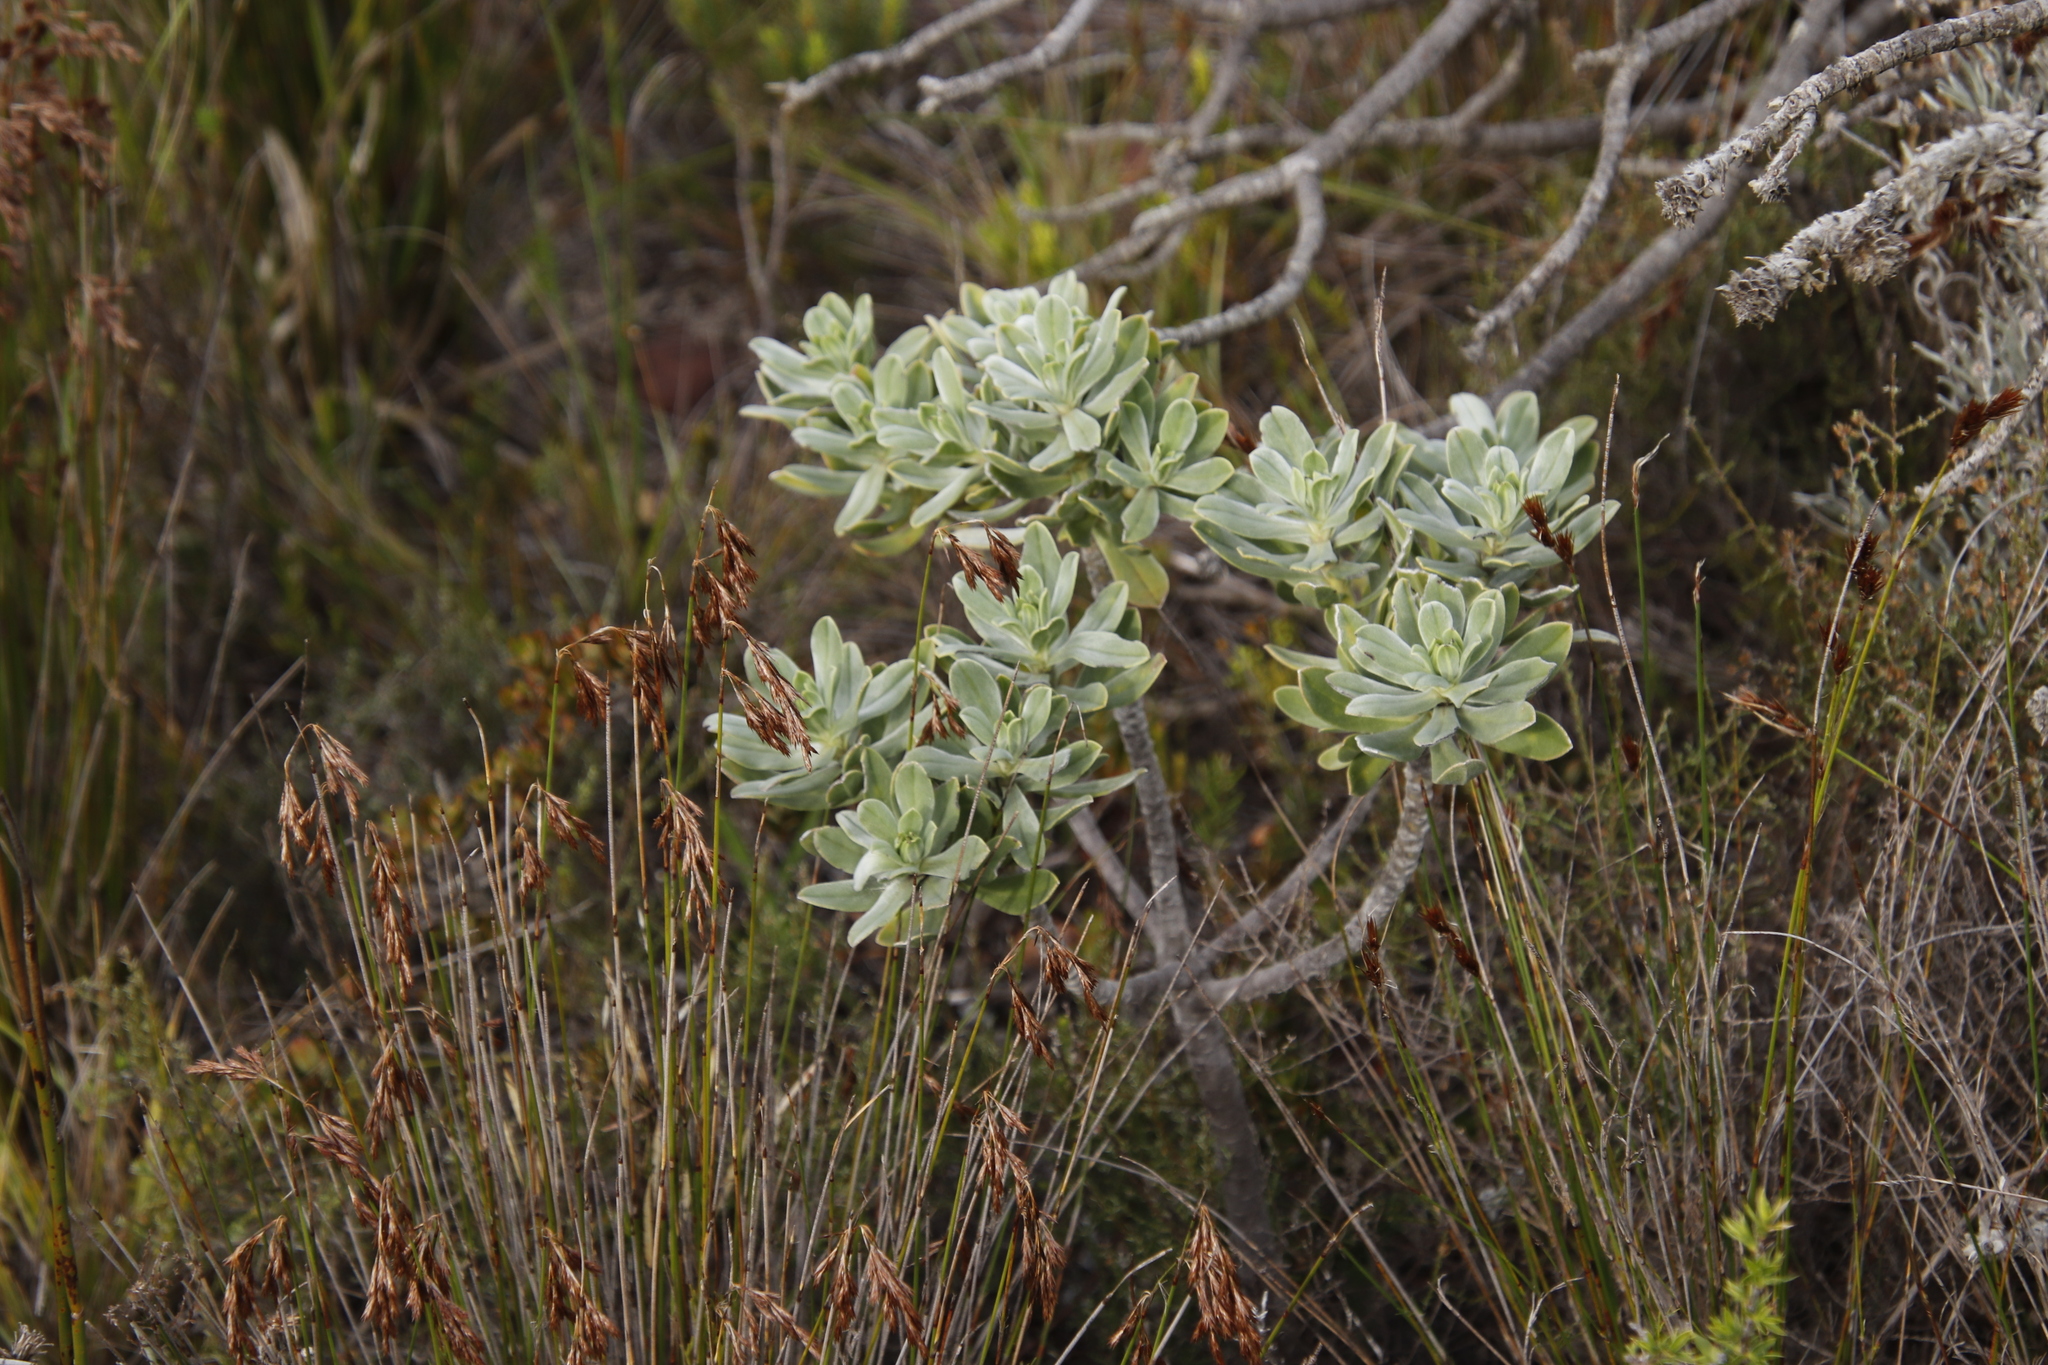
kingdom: Plantae
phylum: Tracheophyta
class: Magnoliopsida
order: Boraginales
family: Boraginaceae
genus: Lobostemon
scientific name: Lobostemon montanus
